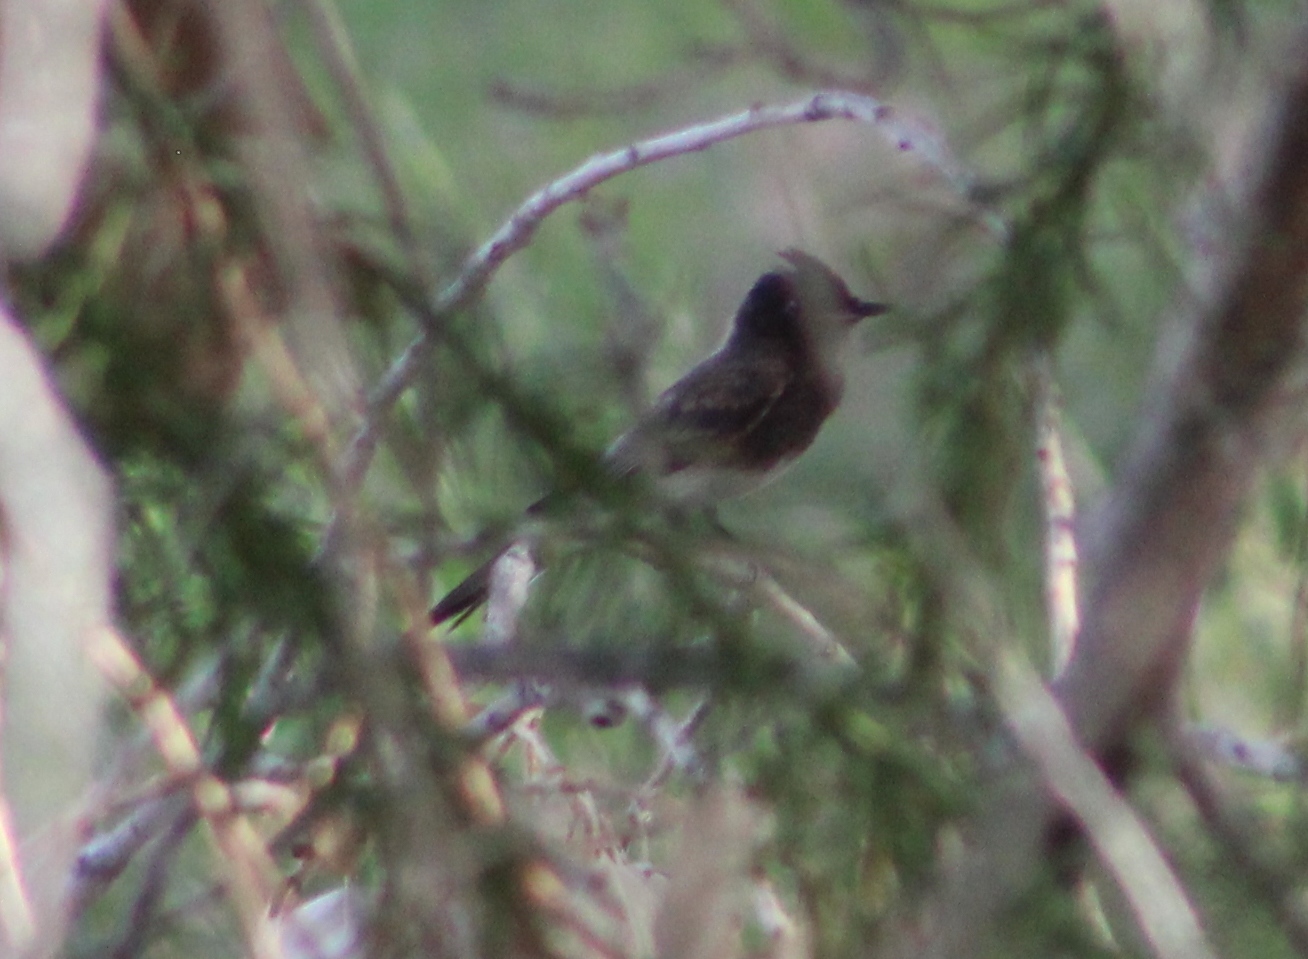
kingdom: Animalia
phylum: Chordata
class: Aves
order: Passeriformes
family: Tyrannidae
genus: Sayornis
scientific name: Sayornis nigricans
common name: Black phoebe
